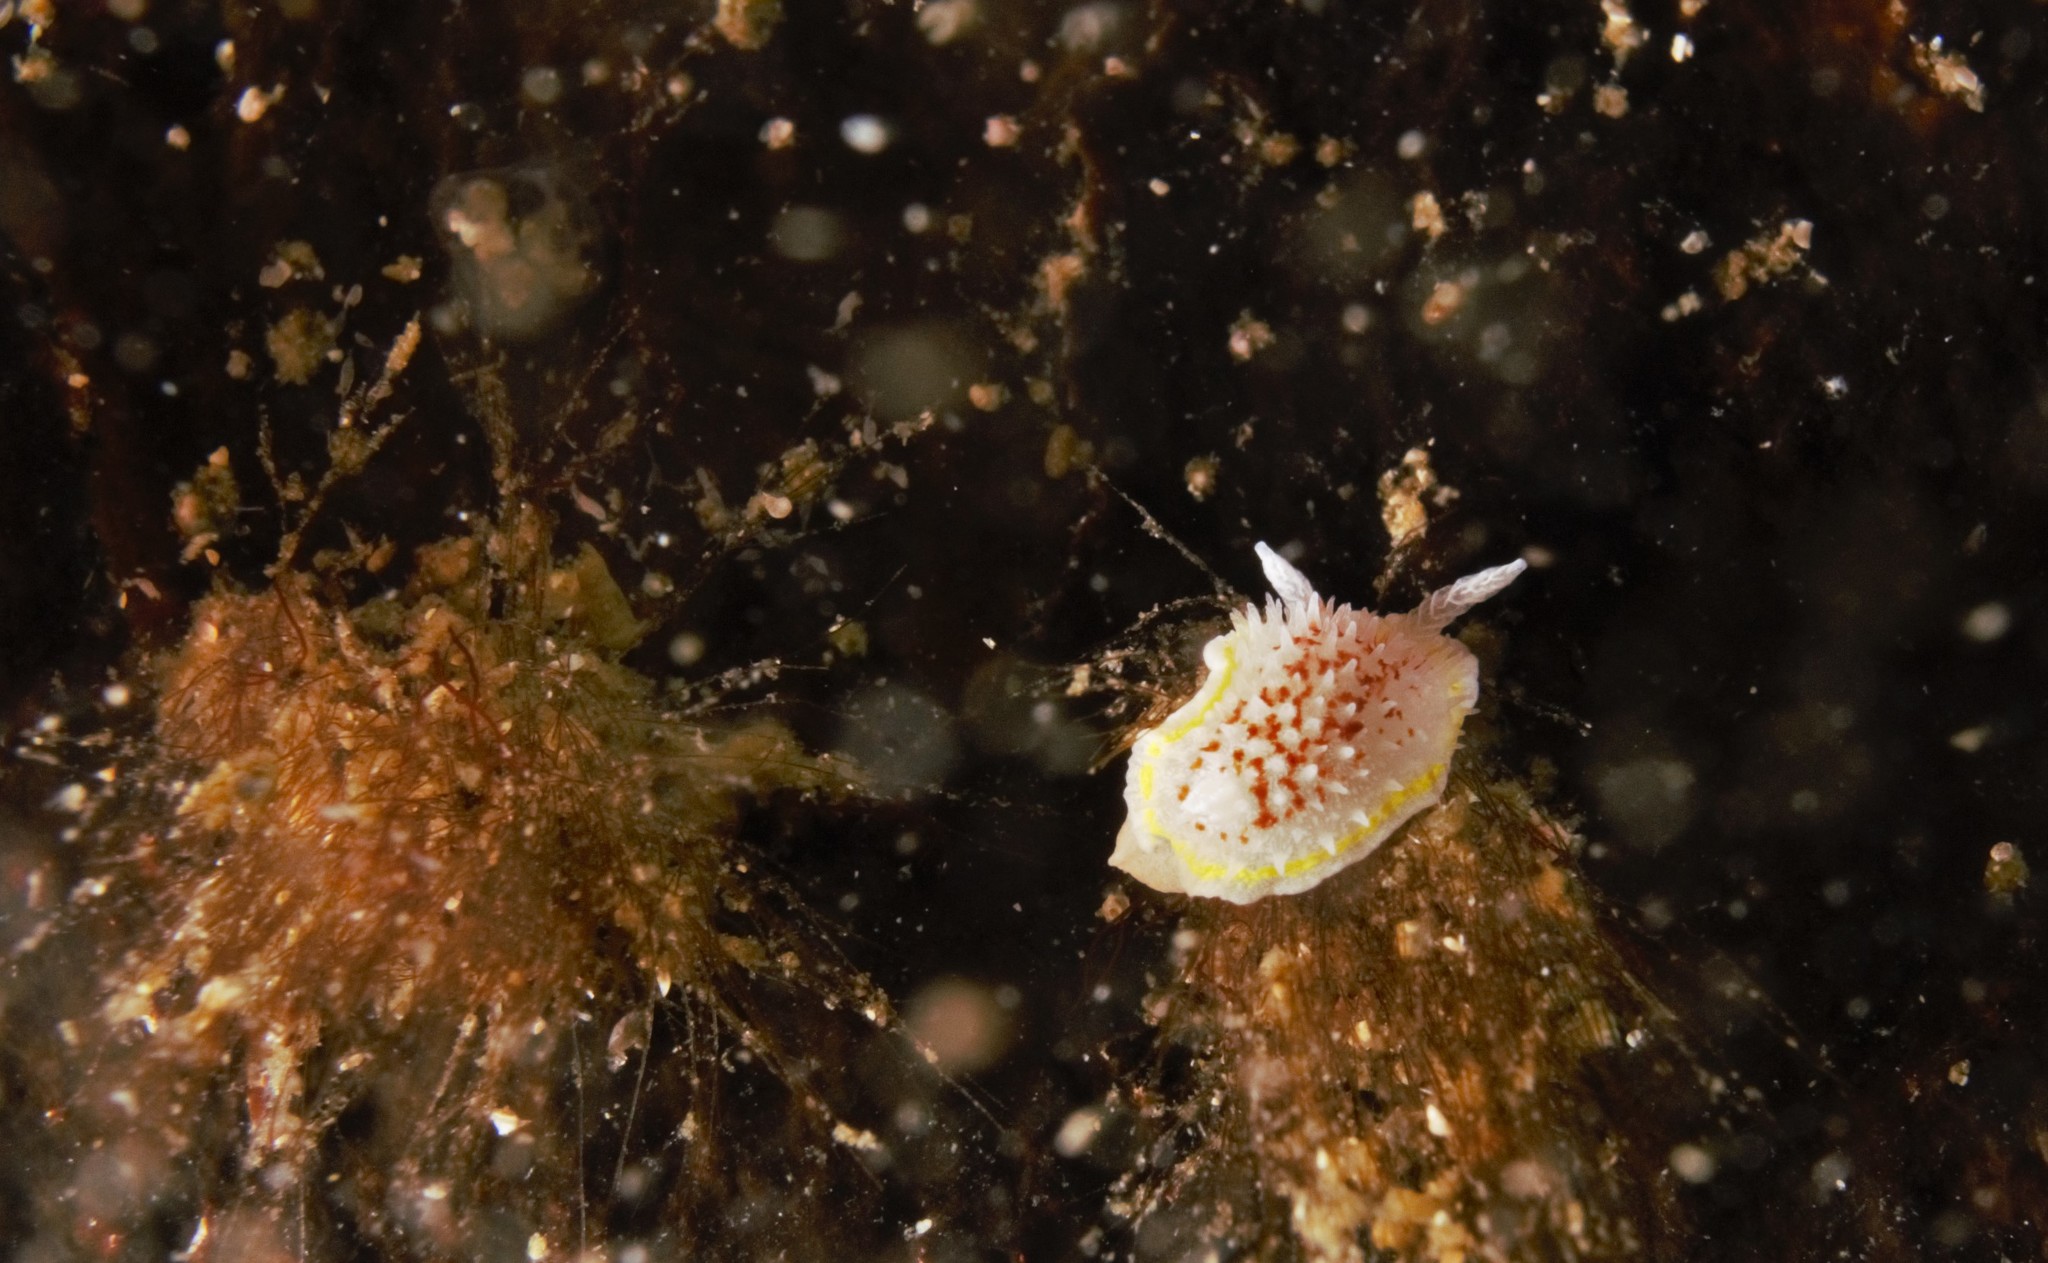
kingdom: Animalia
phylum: Mollusca
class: Gastropoda
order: Nudibranchia
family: Calycidorididae
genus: Diaphorodoris
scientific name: Diaphorodoris luteocincta
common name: Fried egg nudibranch
